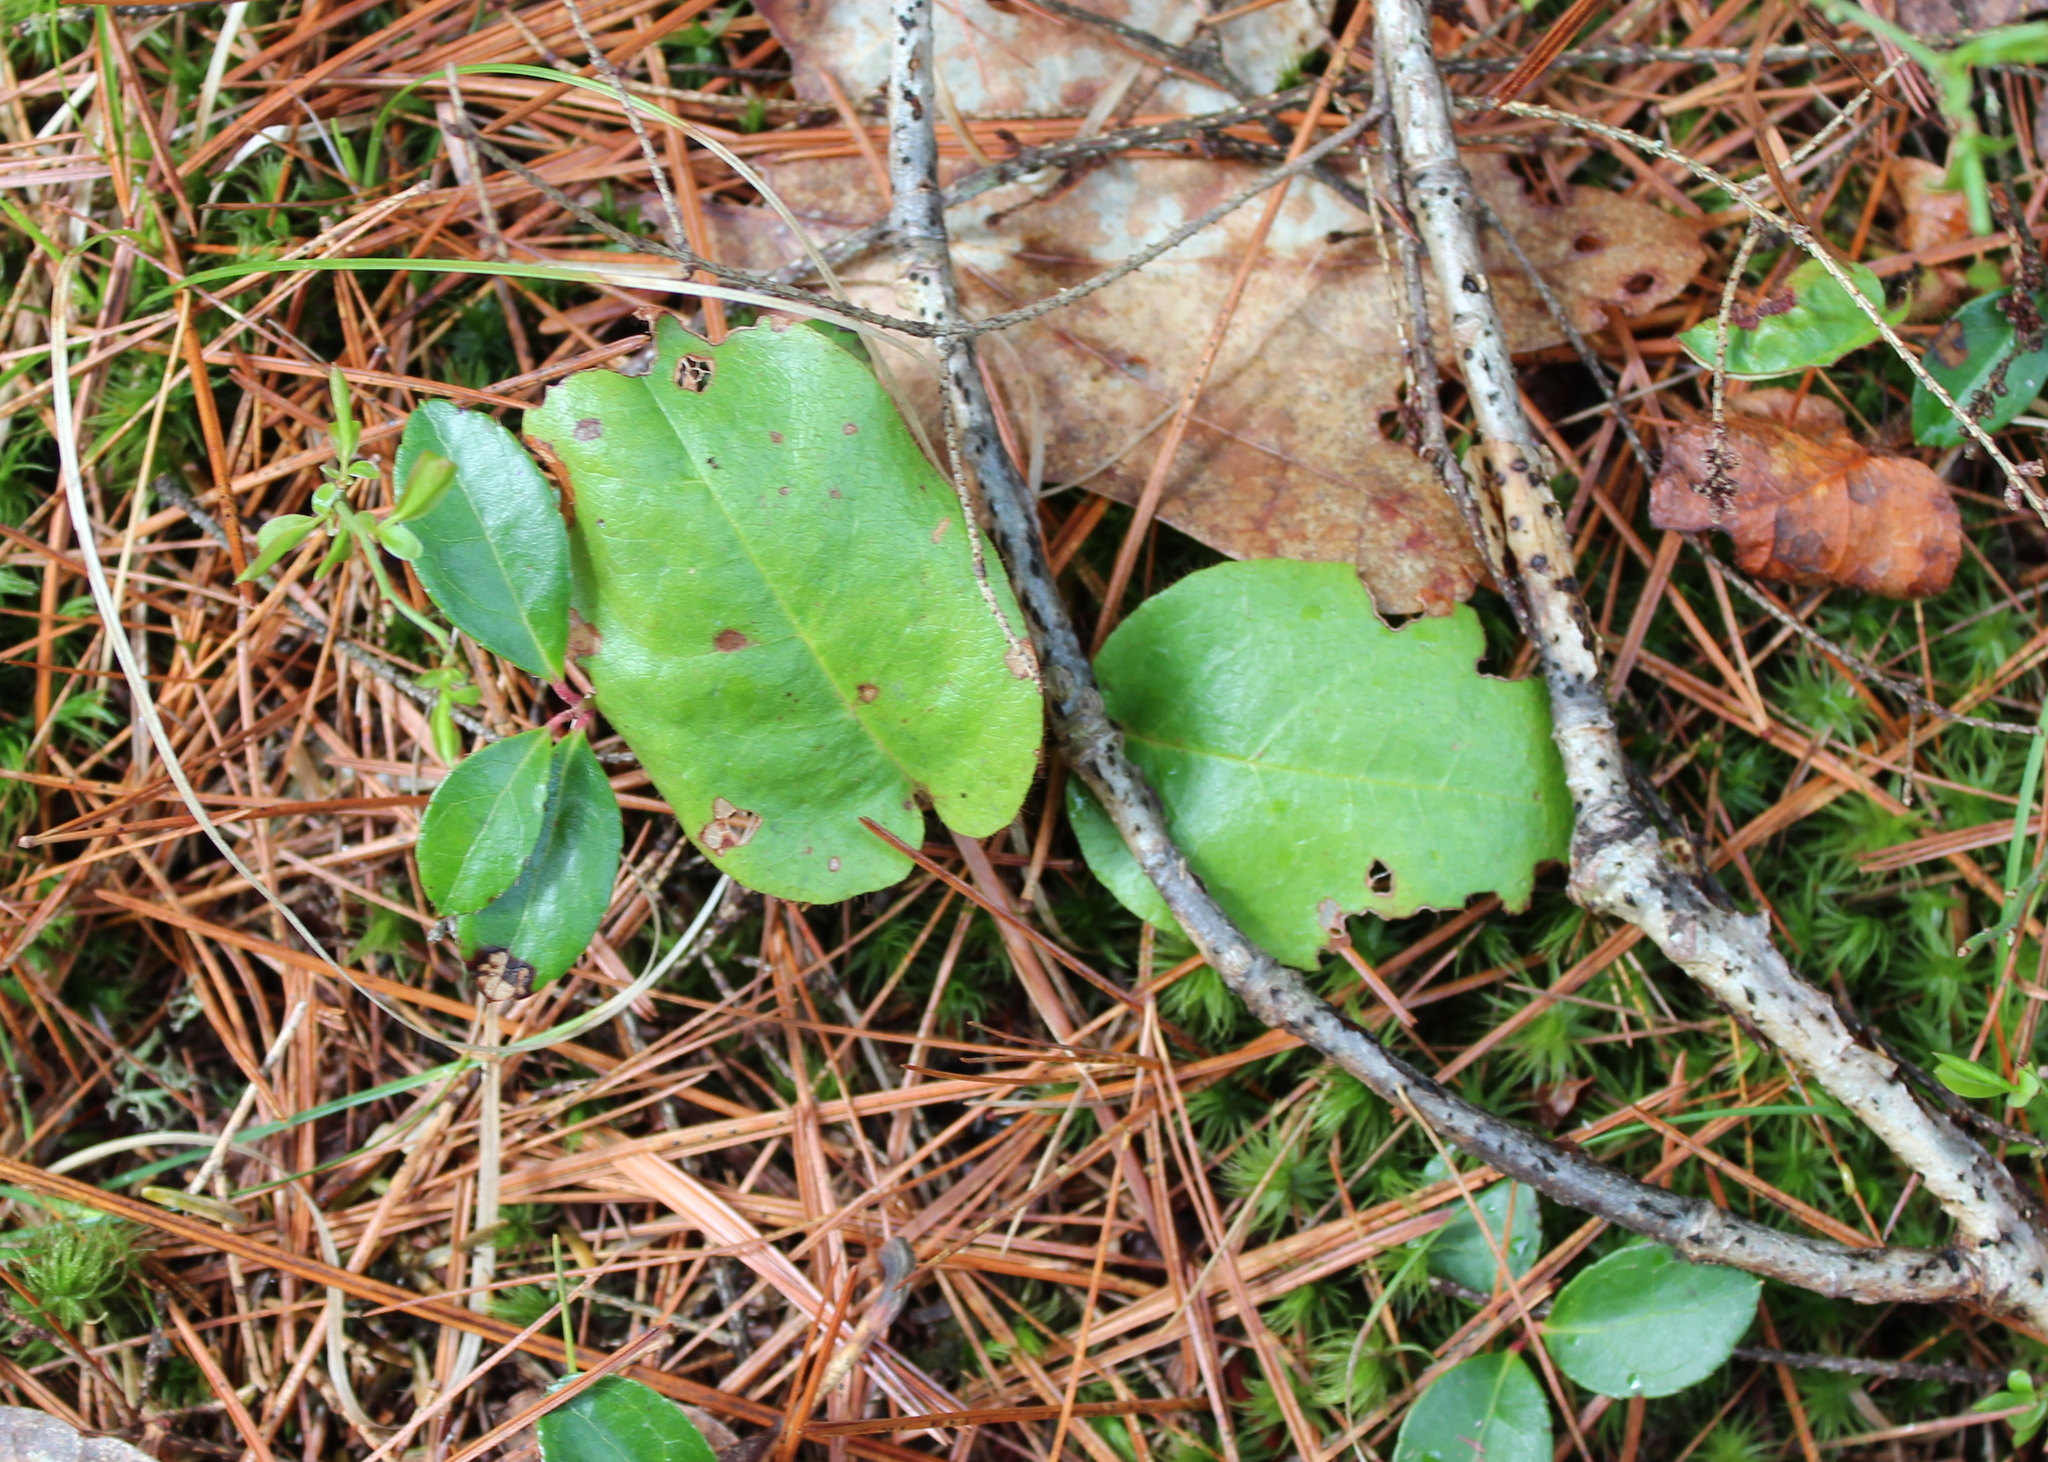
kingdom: Plantae
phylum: Tracheophyta
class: Magnoliopsida
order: Ericales
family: Ericaceae
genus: Epigaea
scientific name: Epigaea repens
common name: Gravelroot
